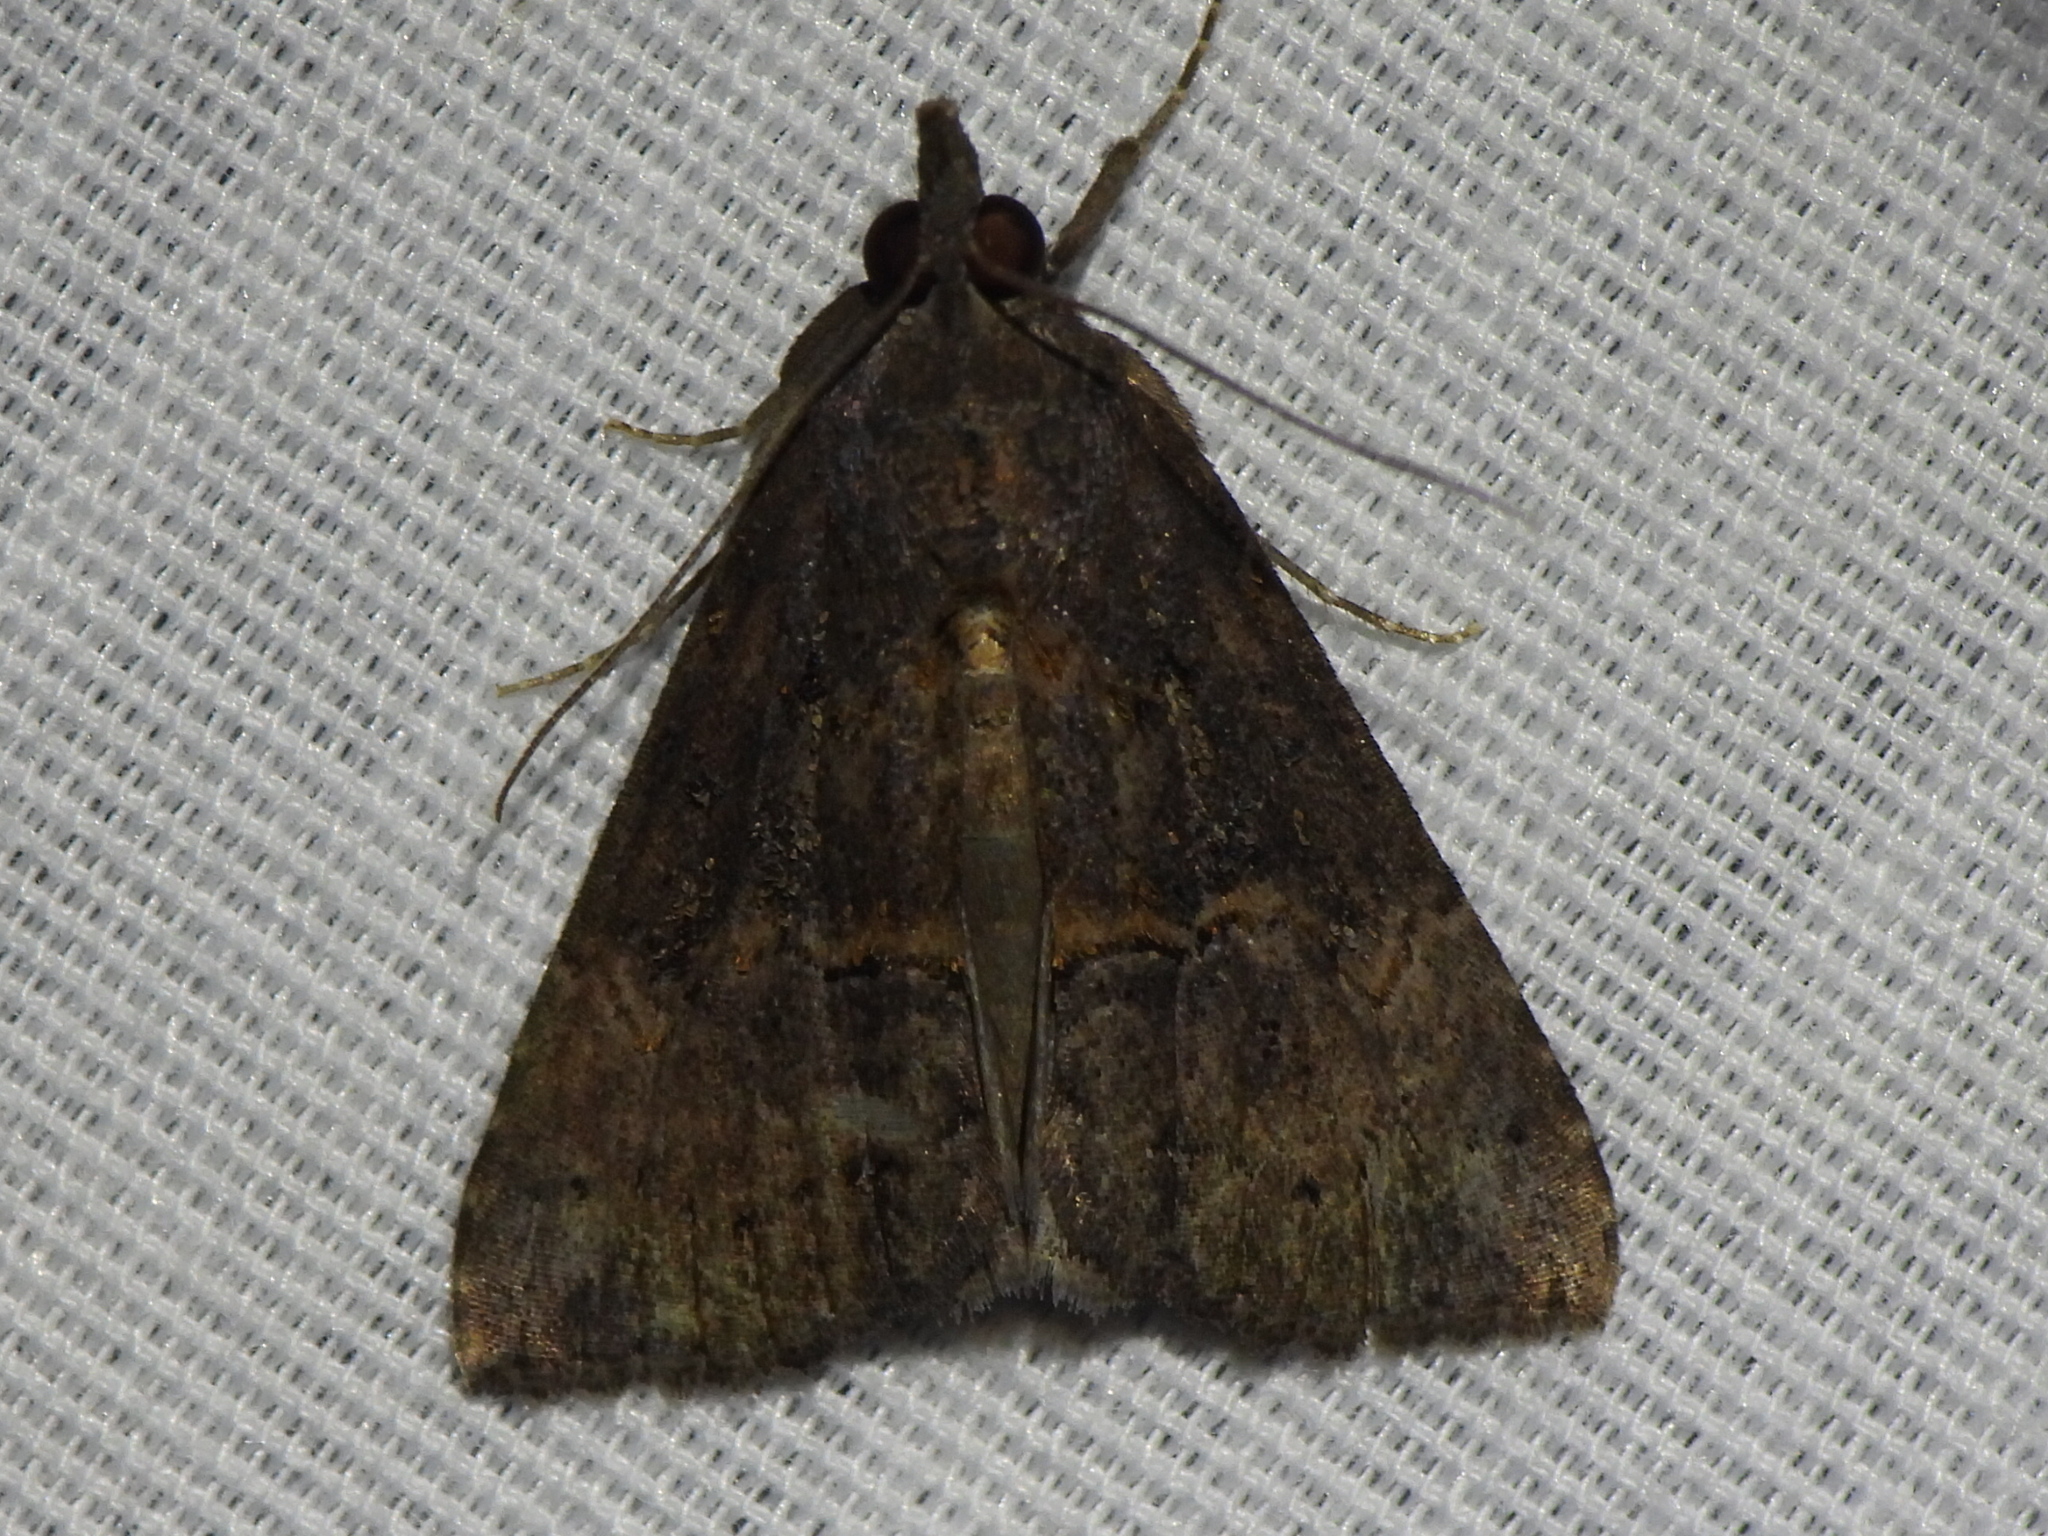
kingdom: Animalia
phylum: Arthropoda
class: Insecta
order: Lepidoptera
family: Erebidae
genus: Hypena
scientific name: Hypena scabra
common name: Green cloverworm
